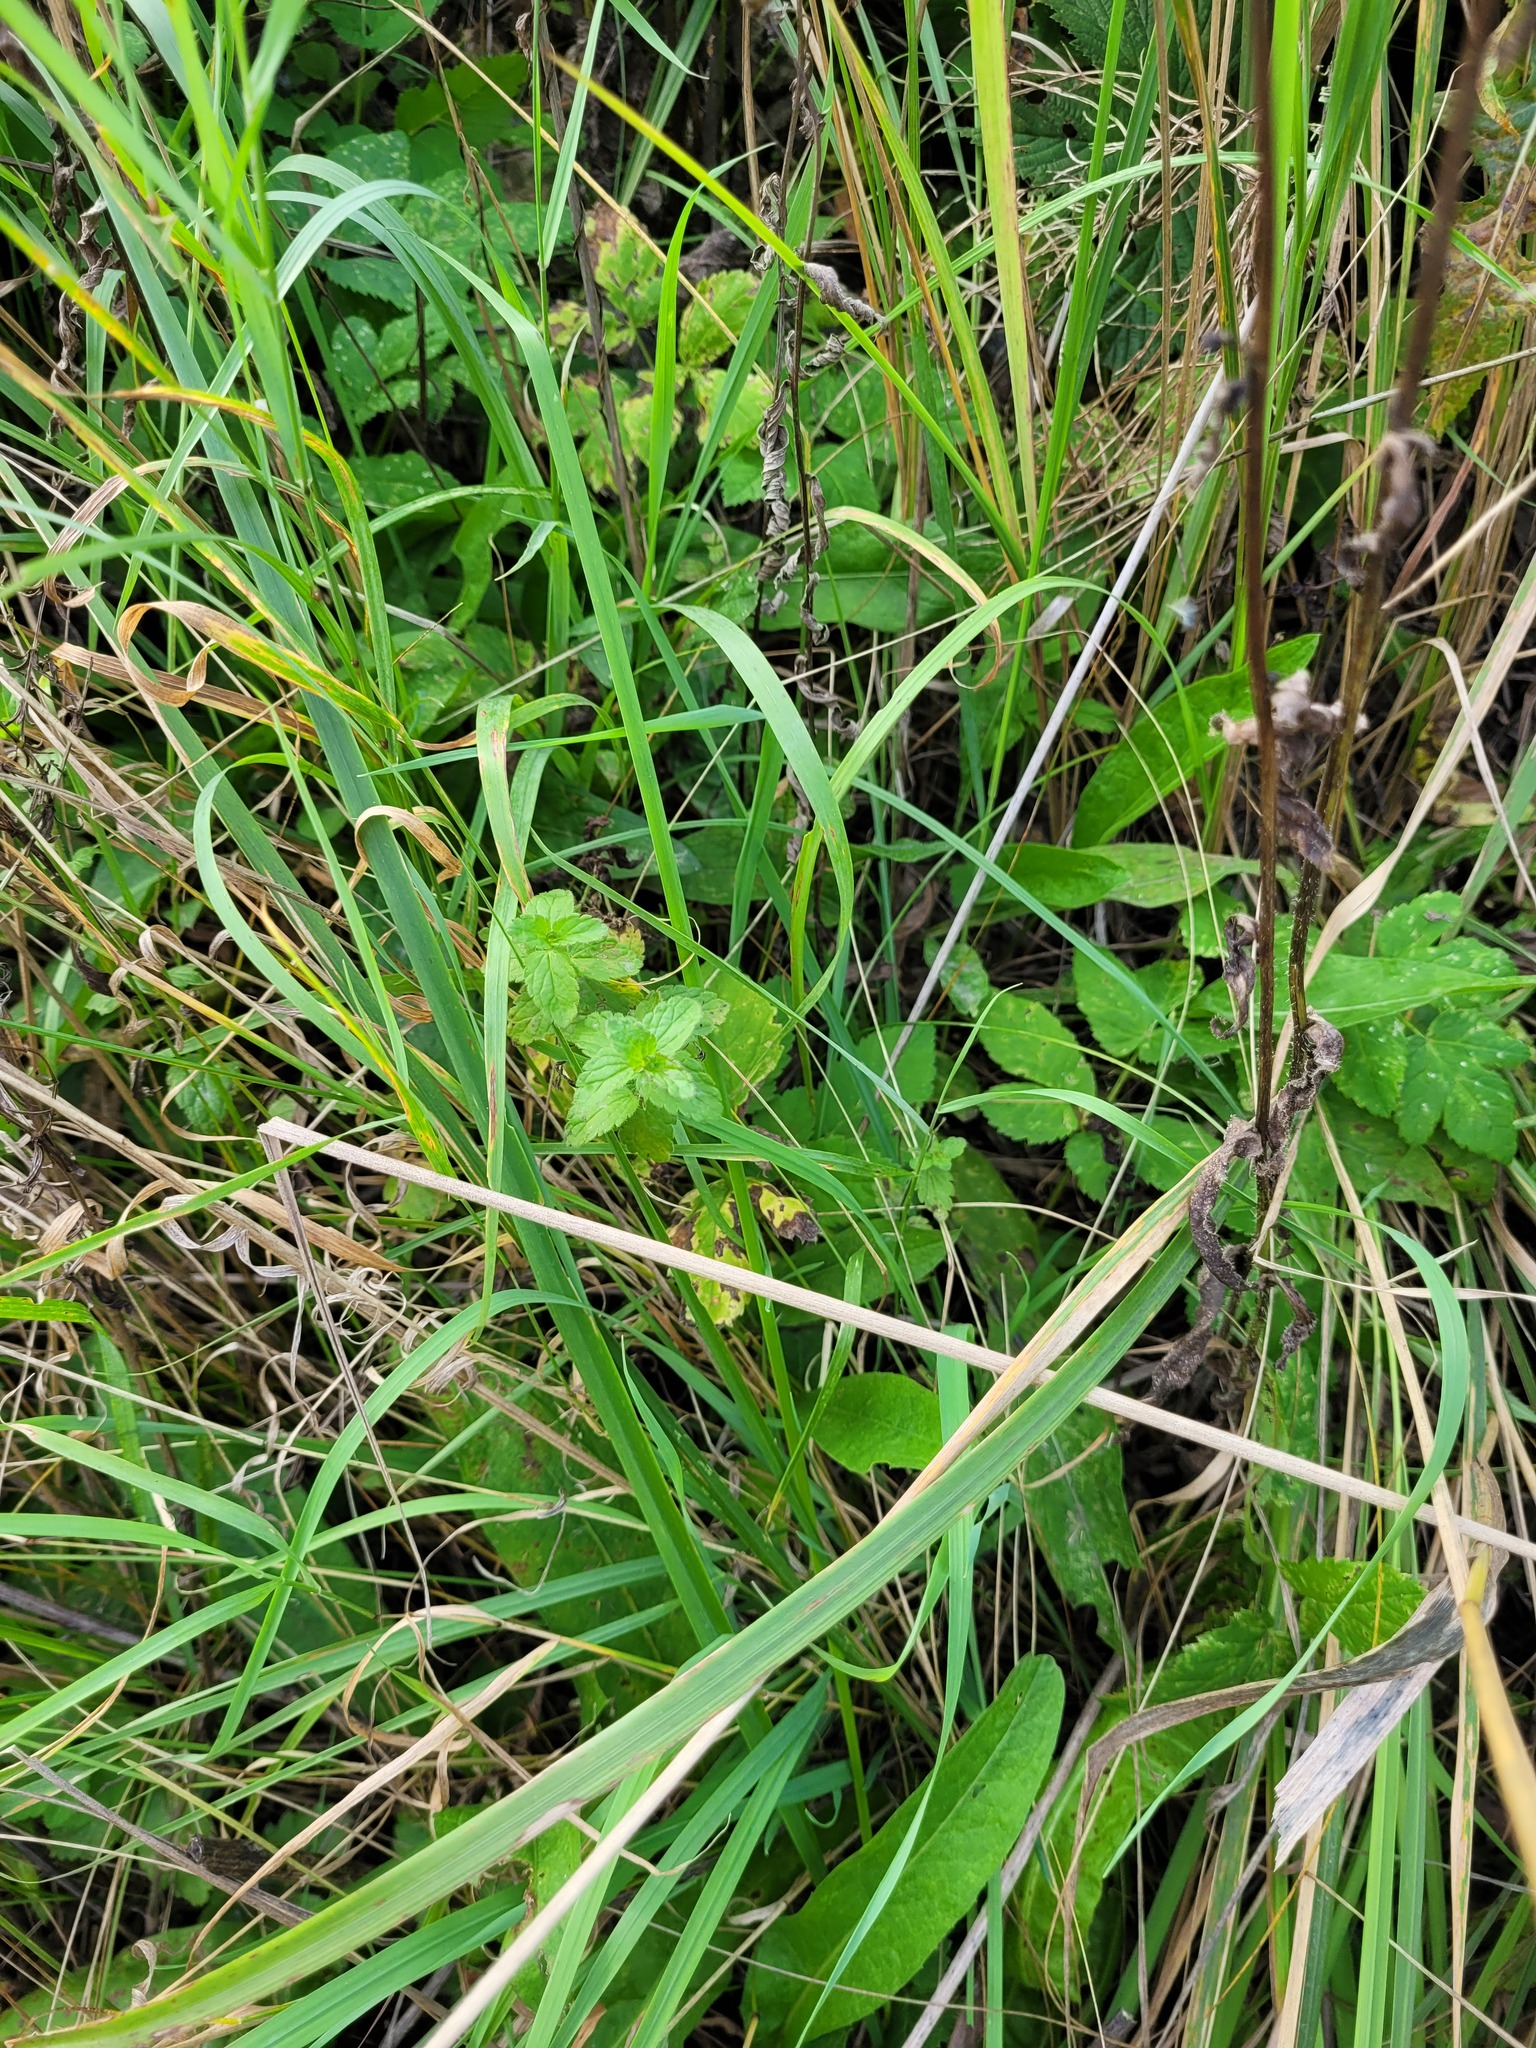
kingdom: Plantae
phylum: Tracheophyta
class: Magnoliopsida
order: Lamiales
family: Plantaginaceae
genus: Veronica
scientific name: Veronica chamaedrys
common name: Germander speedwell
